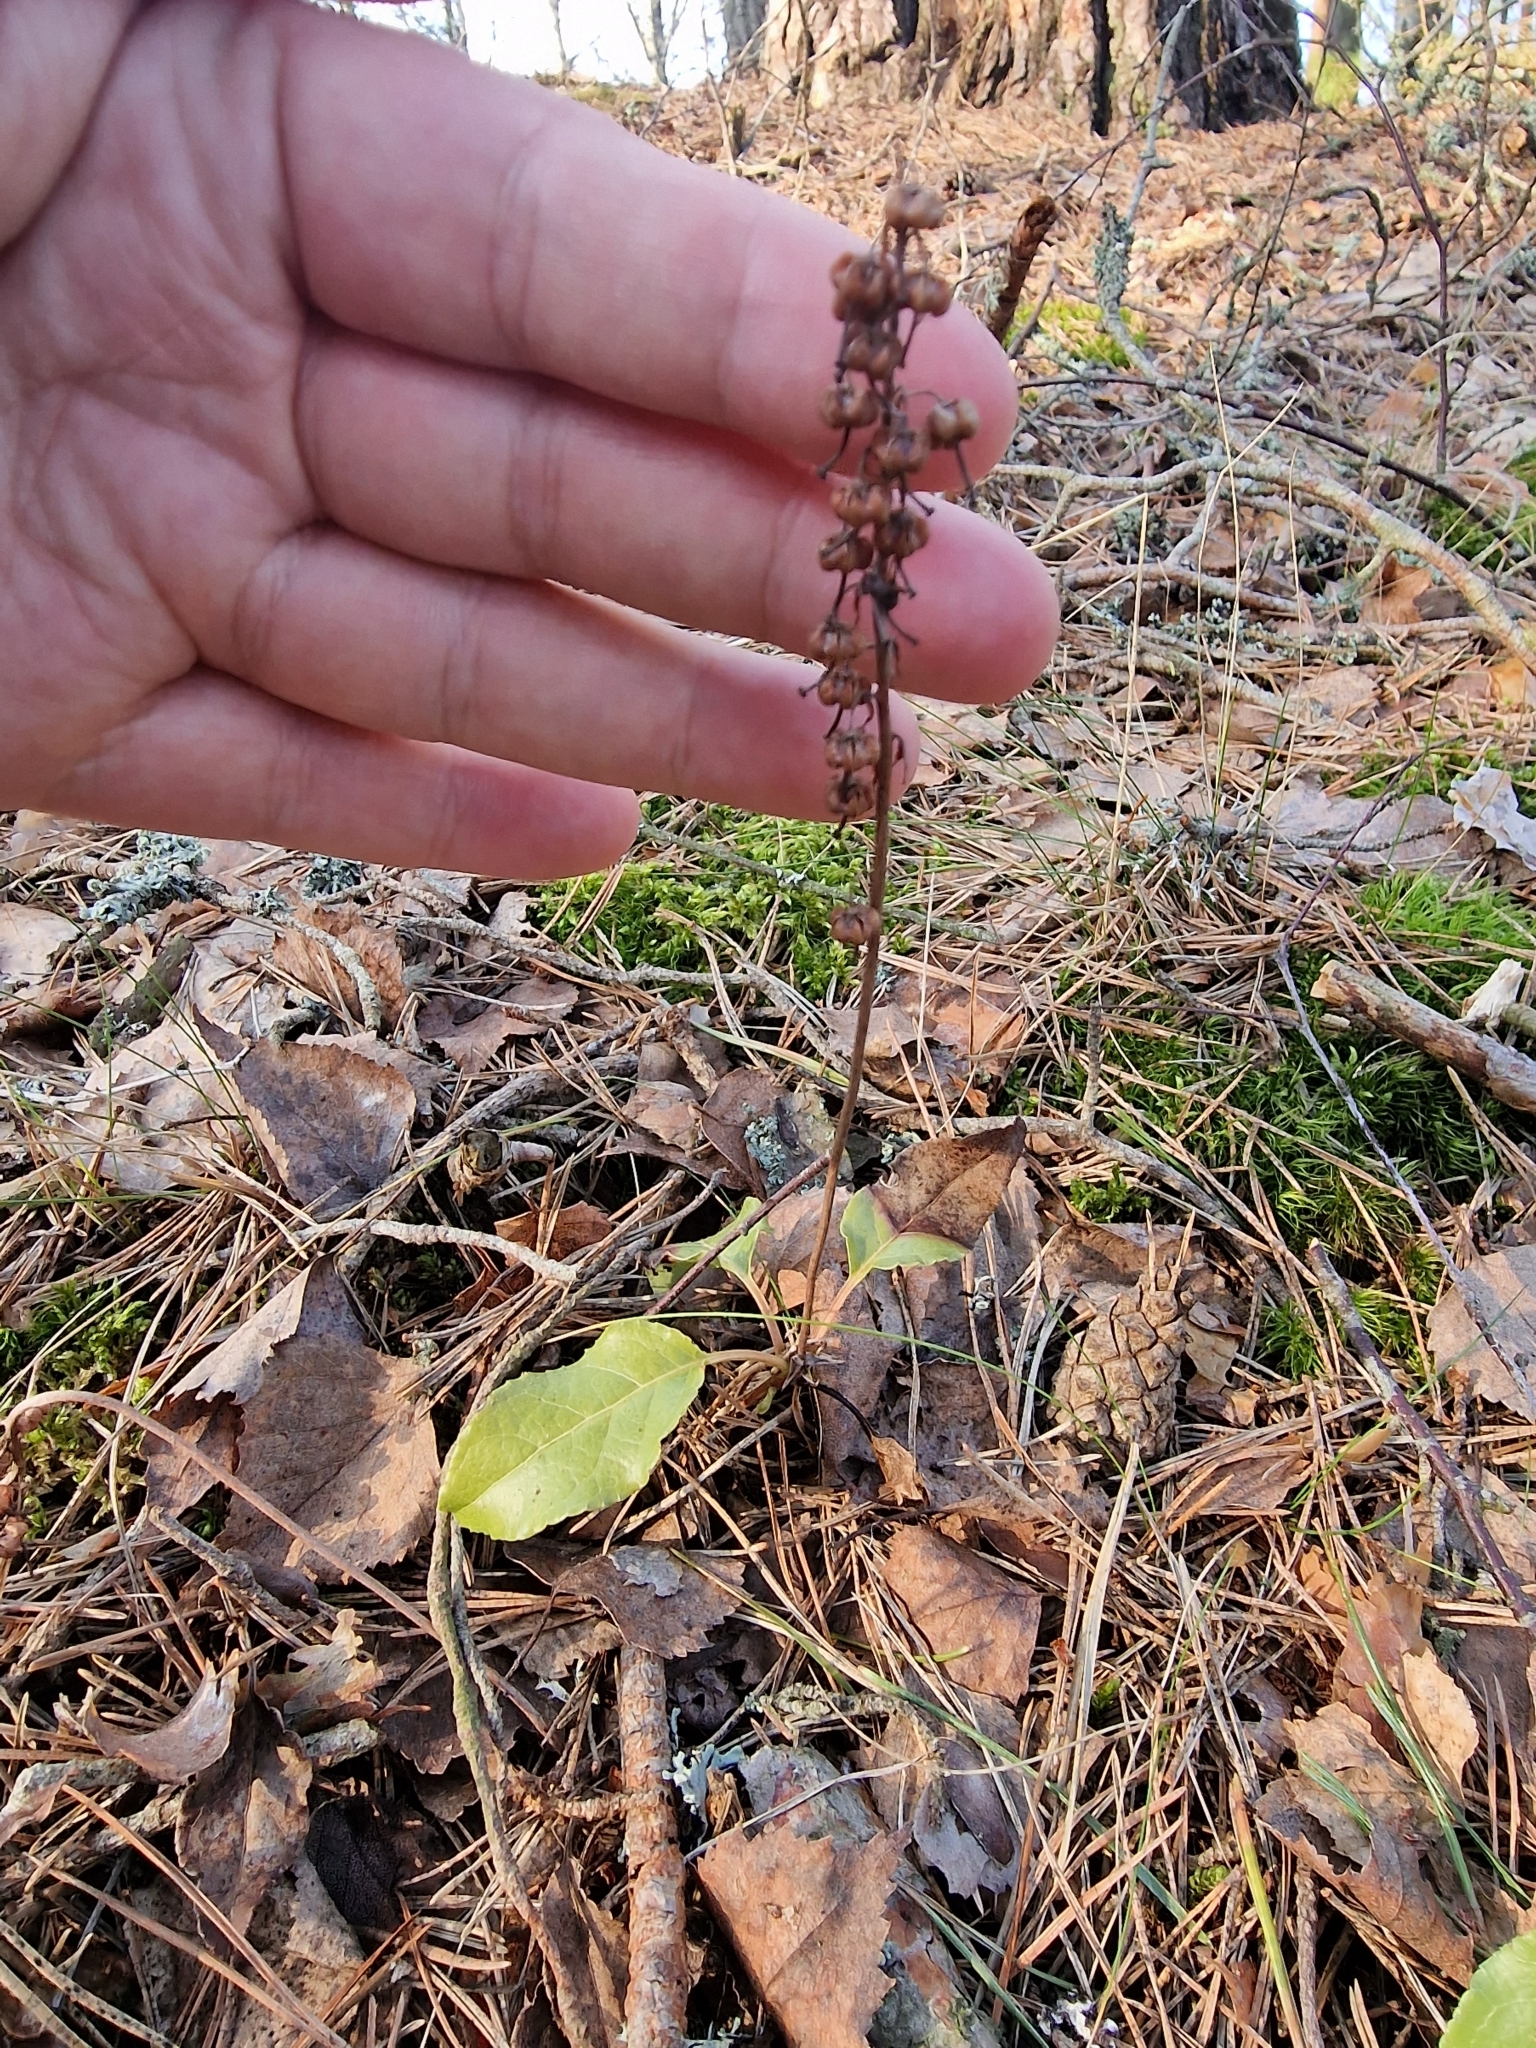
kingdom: Plantae
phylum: Tracheophyta
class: Magnoliopsida
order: Ericales
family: Ericaceae
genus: Orthilia
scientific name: Orthilia secunda
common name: One-sided orthilia
